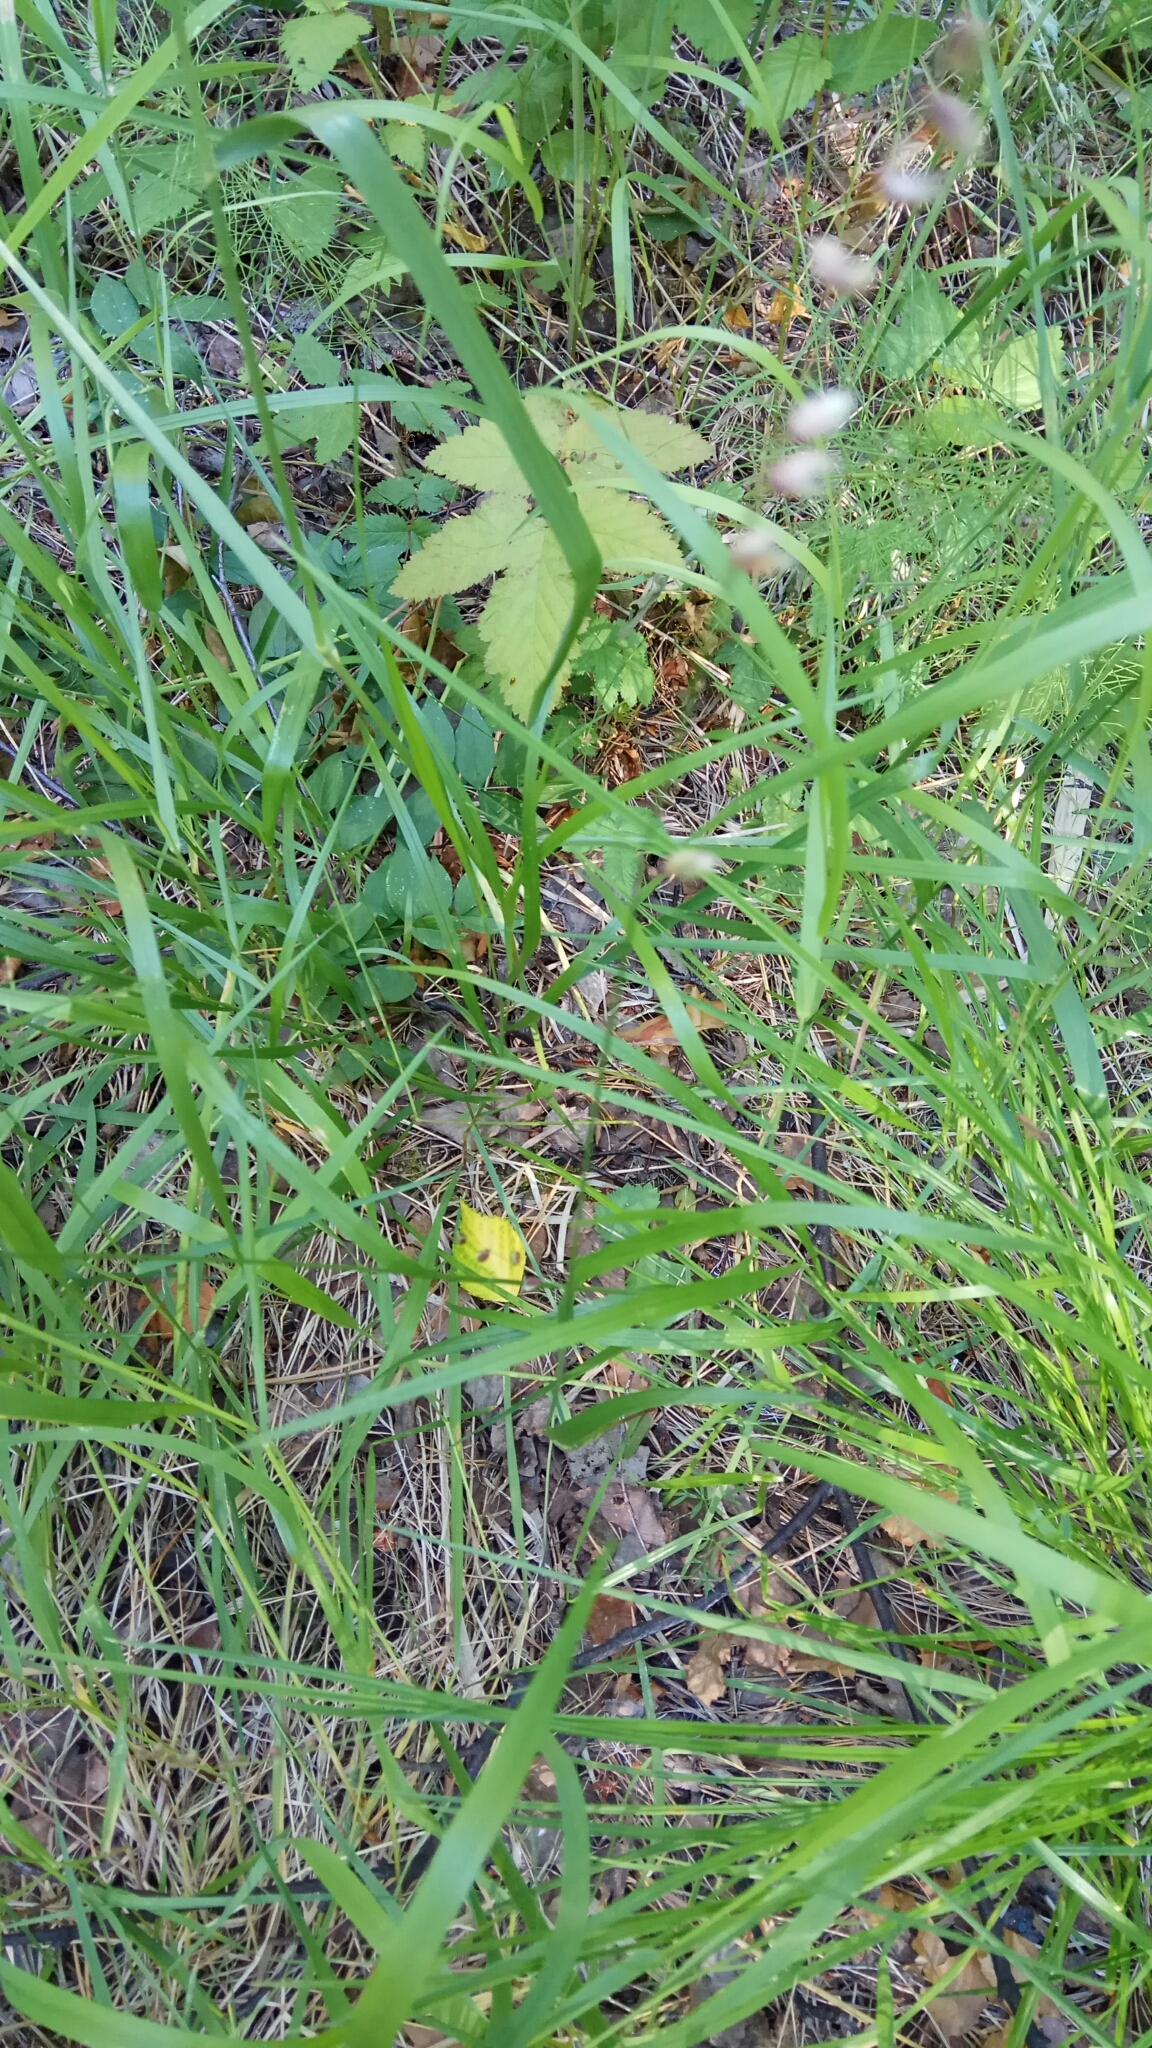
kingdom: Plantae
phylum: Tracheophyta
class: Liliopsida
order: Poales
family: Poaceae
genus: Melica
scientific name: Melica nutans
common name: Mountain melick
